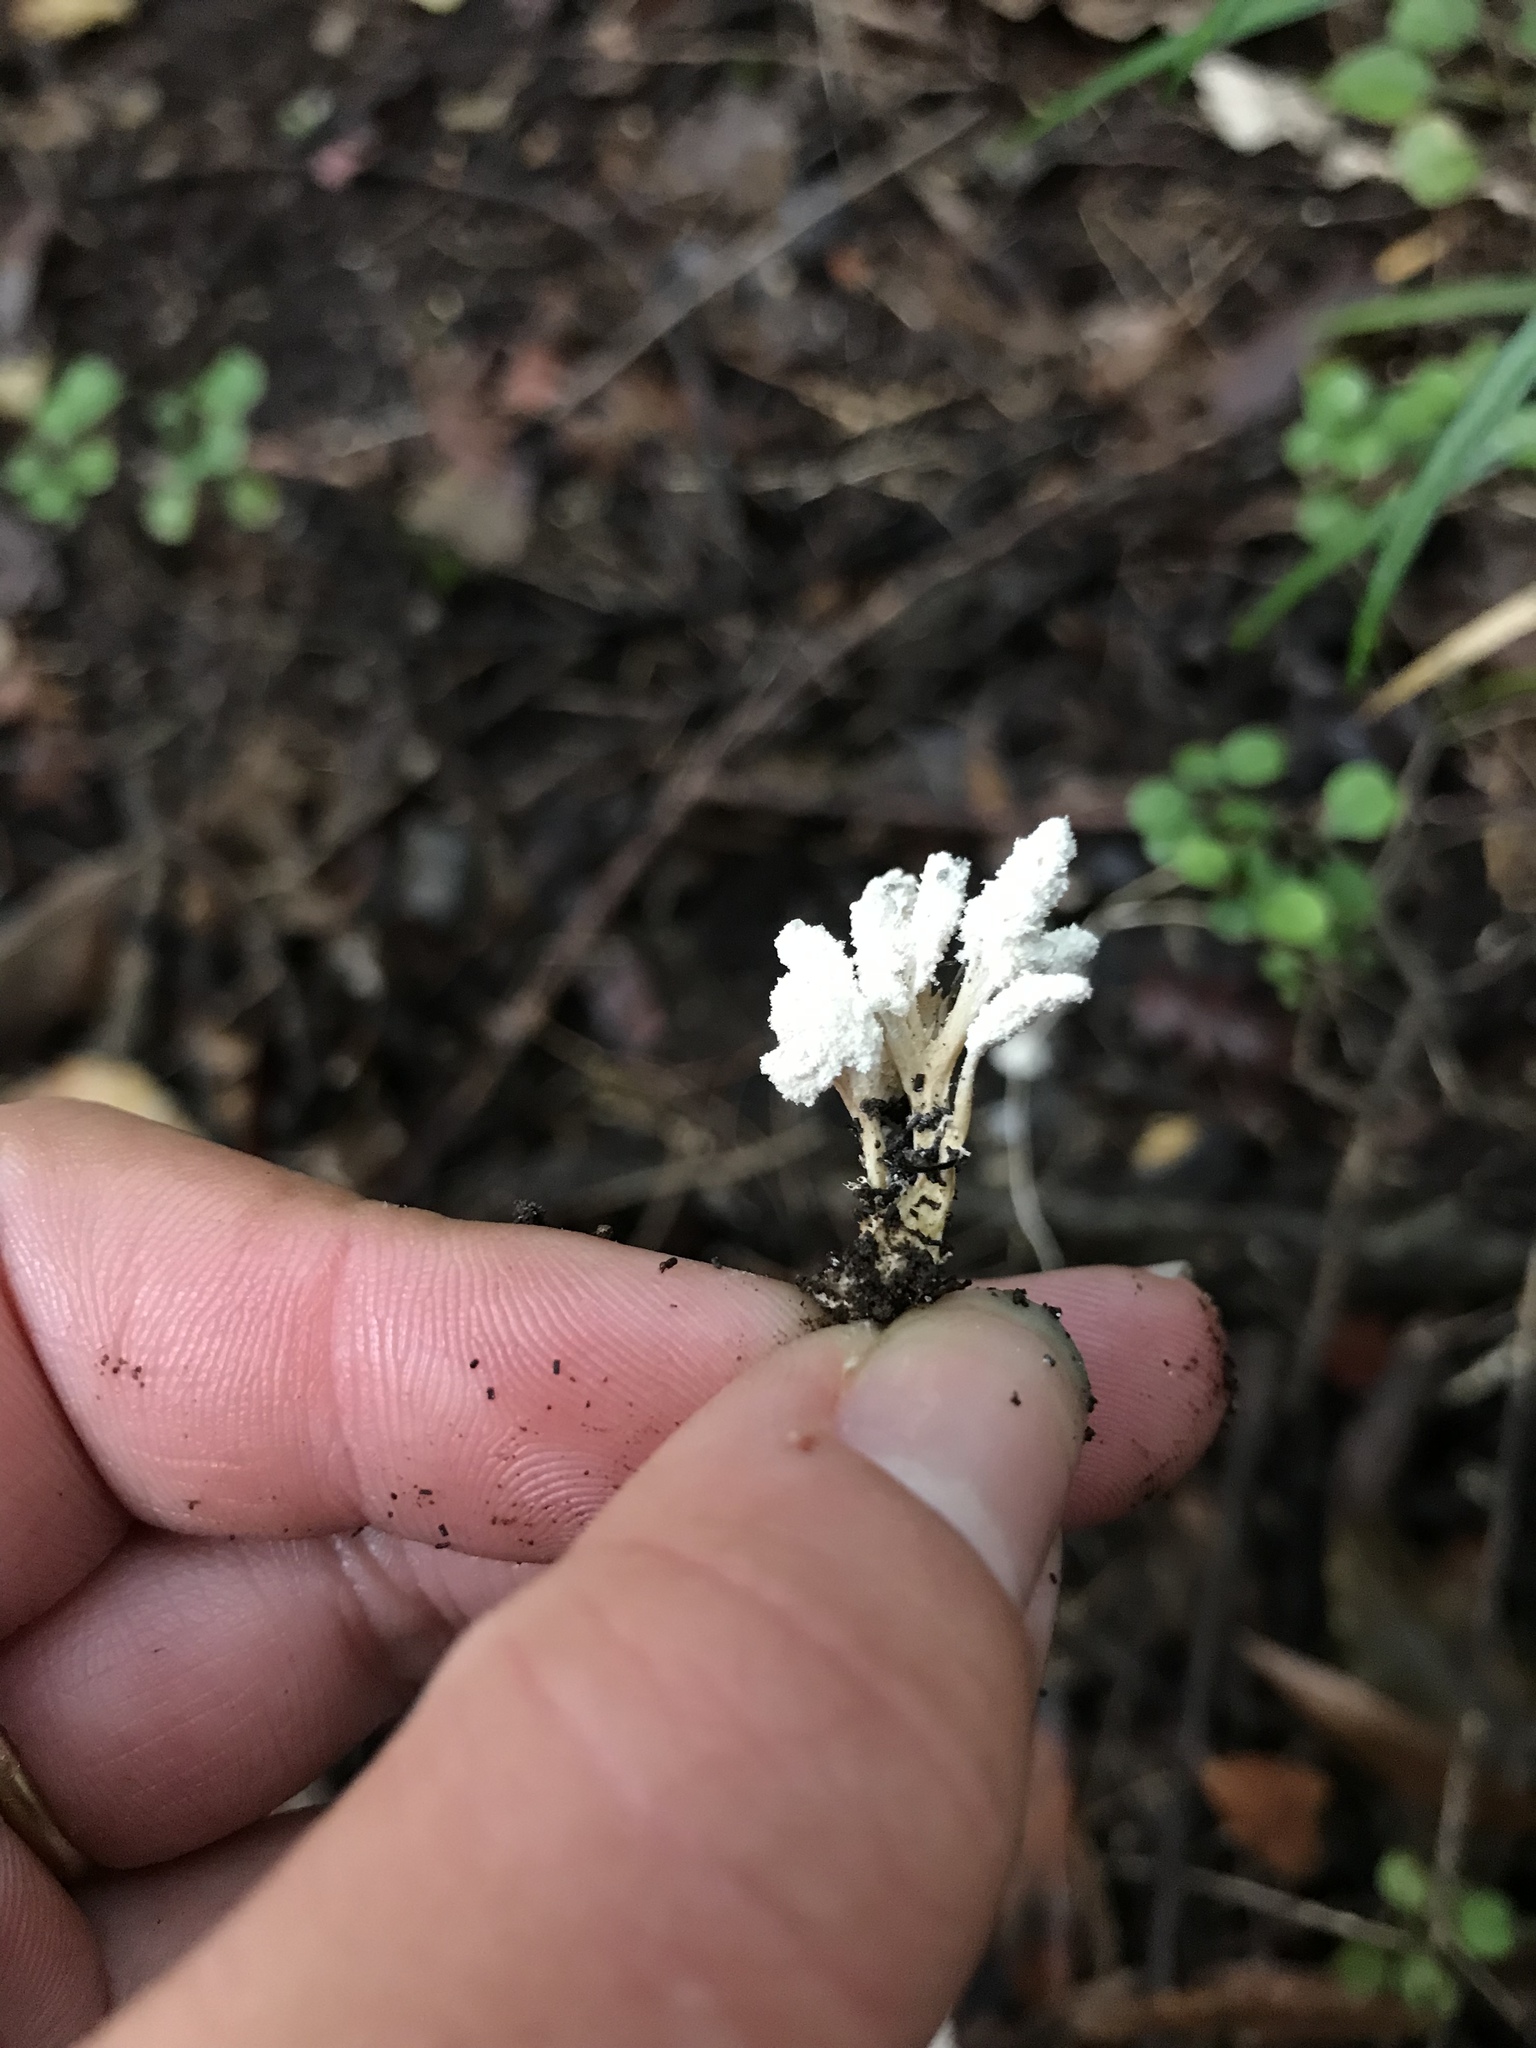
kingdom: Fungi
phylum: Ascomycota
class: Sordariomycetes
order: Hypocreales
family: Cordycipitaceae
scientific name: Cordycipitaceae
